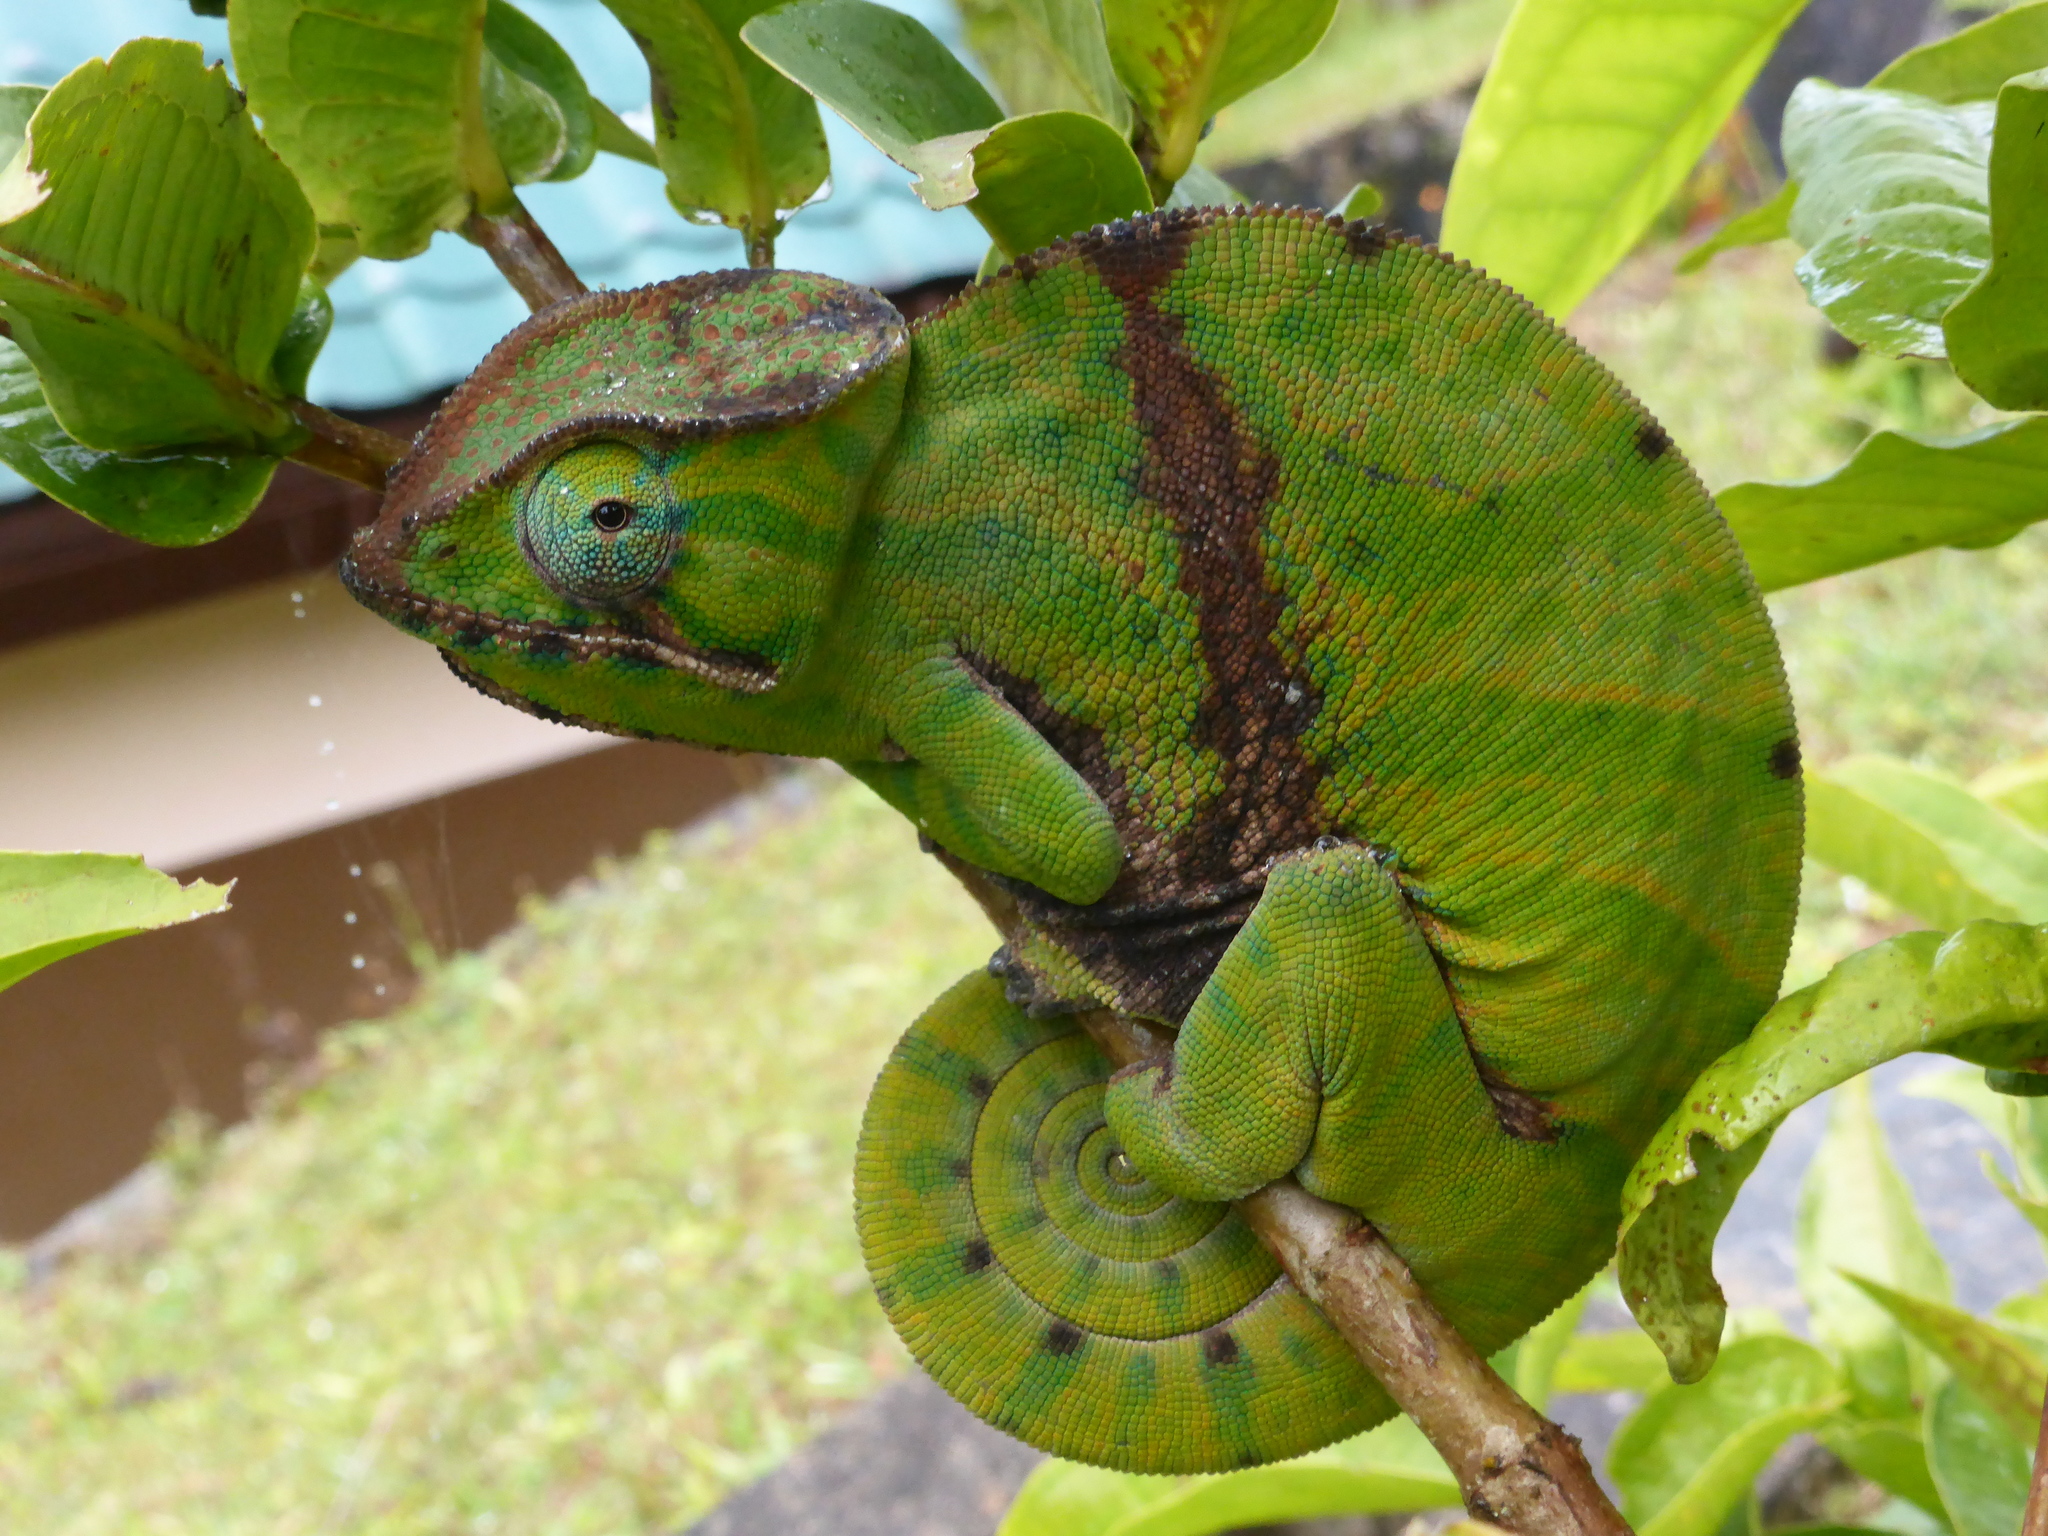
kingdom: Animalia
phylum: Chordata
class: Squamata
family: Chamaeleonidae
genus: Furcifer
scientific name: Furcifer balteatus
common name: Two-banded chameleon
